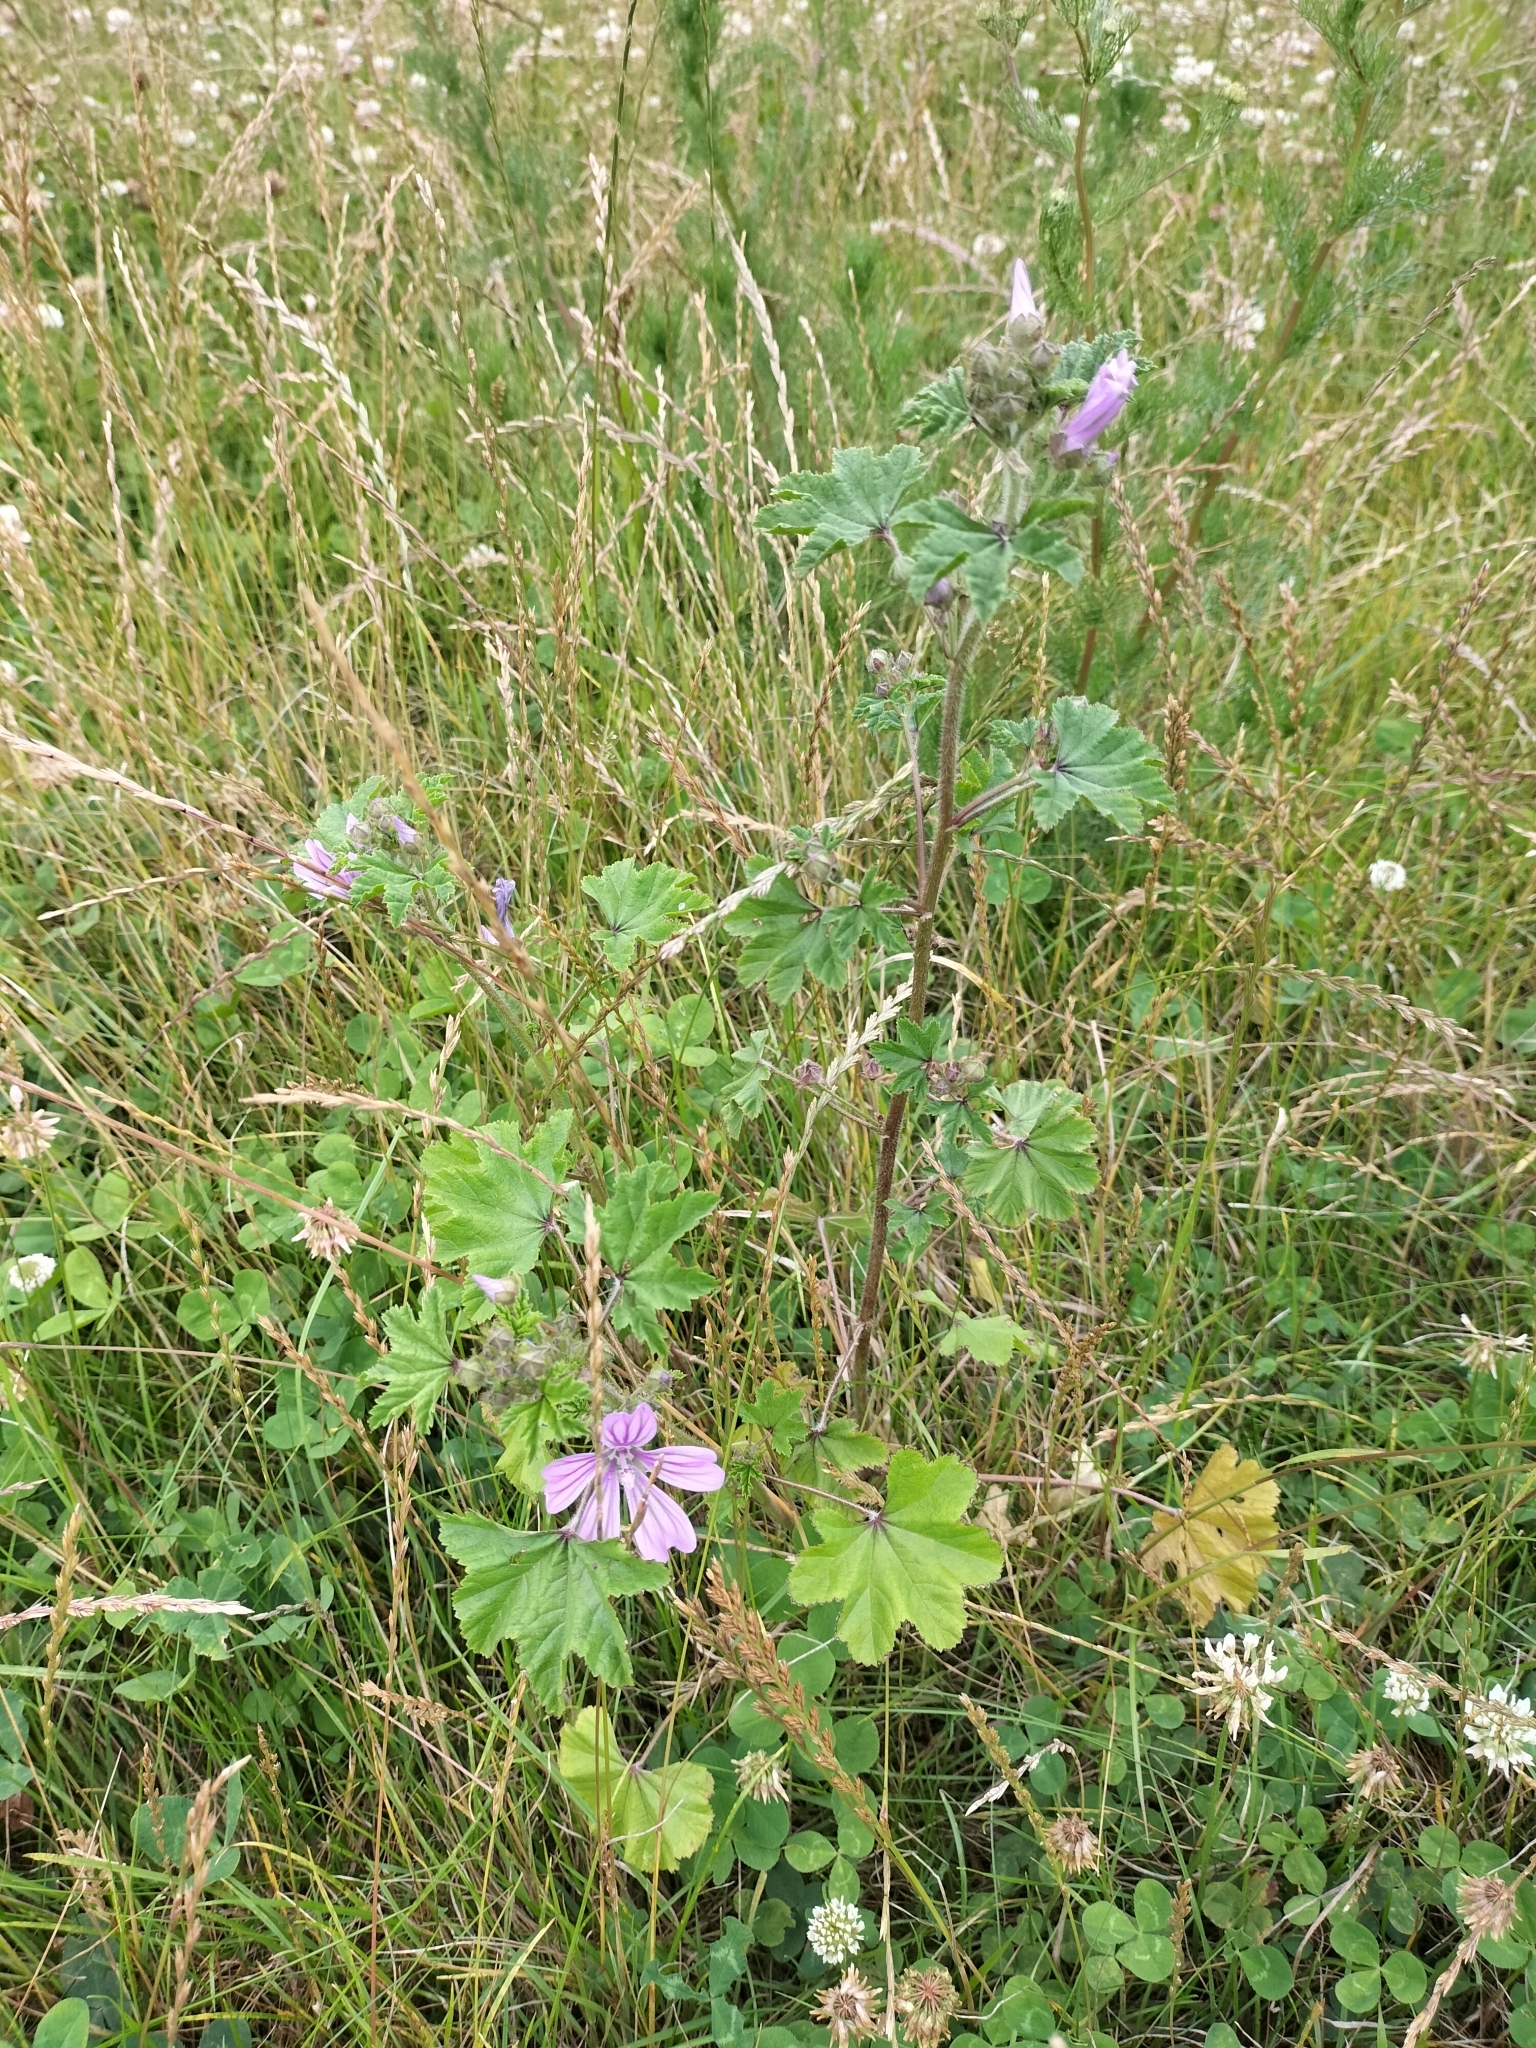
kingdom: Plantae
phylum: Tracheophyta
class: Magnoliopsida
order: Malvales
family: Malvaceae
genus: Malva
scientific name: Malva sylvestris
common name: Common mallow
